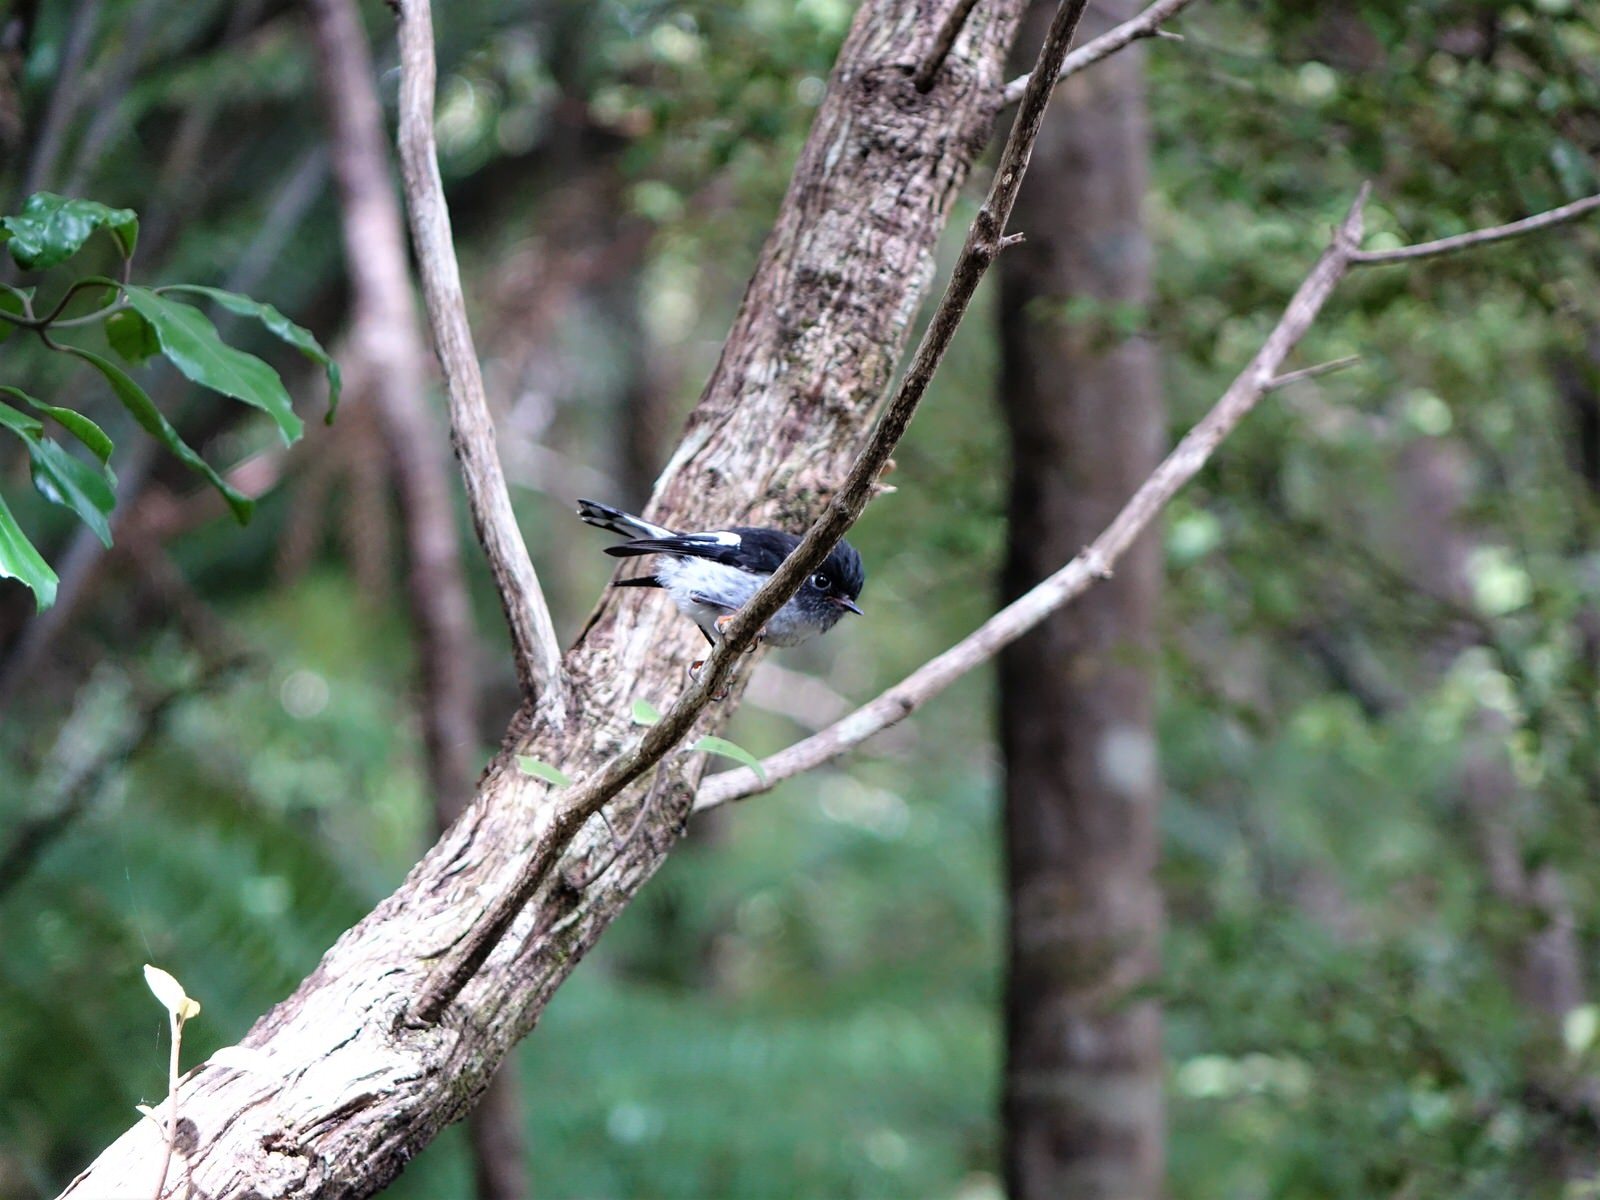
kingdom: Animalia
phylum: Chordata
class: Aves
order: Passeriformes
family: Petroicidae
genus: Petroica
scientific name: Petroica macrocephala
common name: Tomtit
